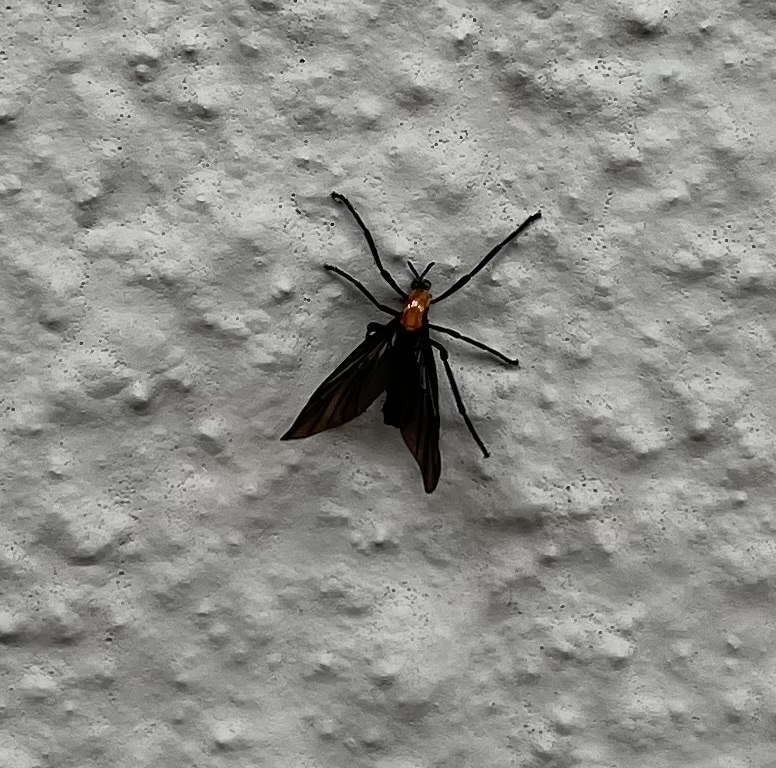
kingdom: Animalia
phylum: Arthropoda
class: Insecta
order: Diptera
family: Bibionidae
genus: Plecia
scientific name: Plecia nearctica
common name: March fly
